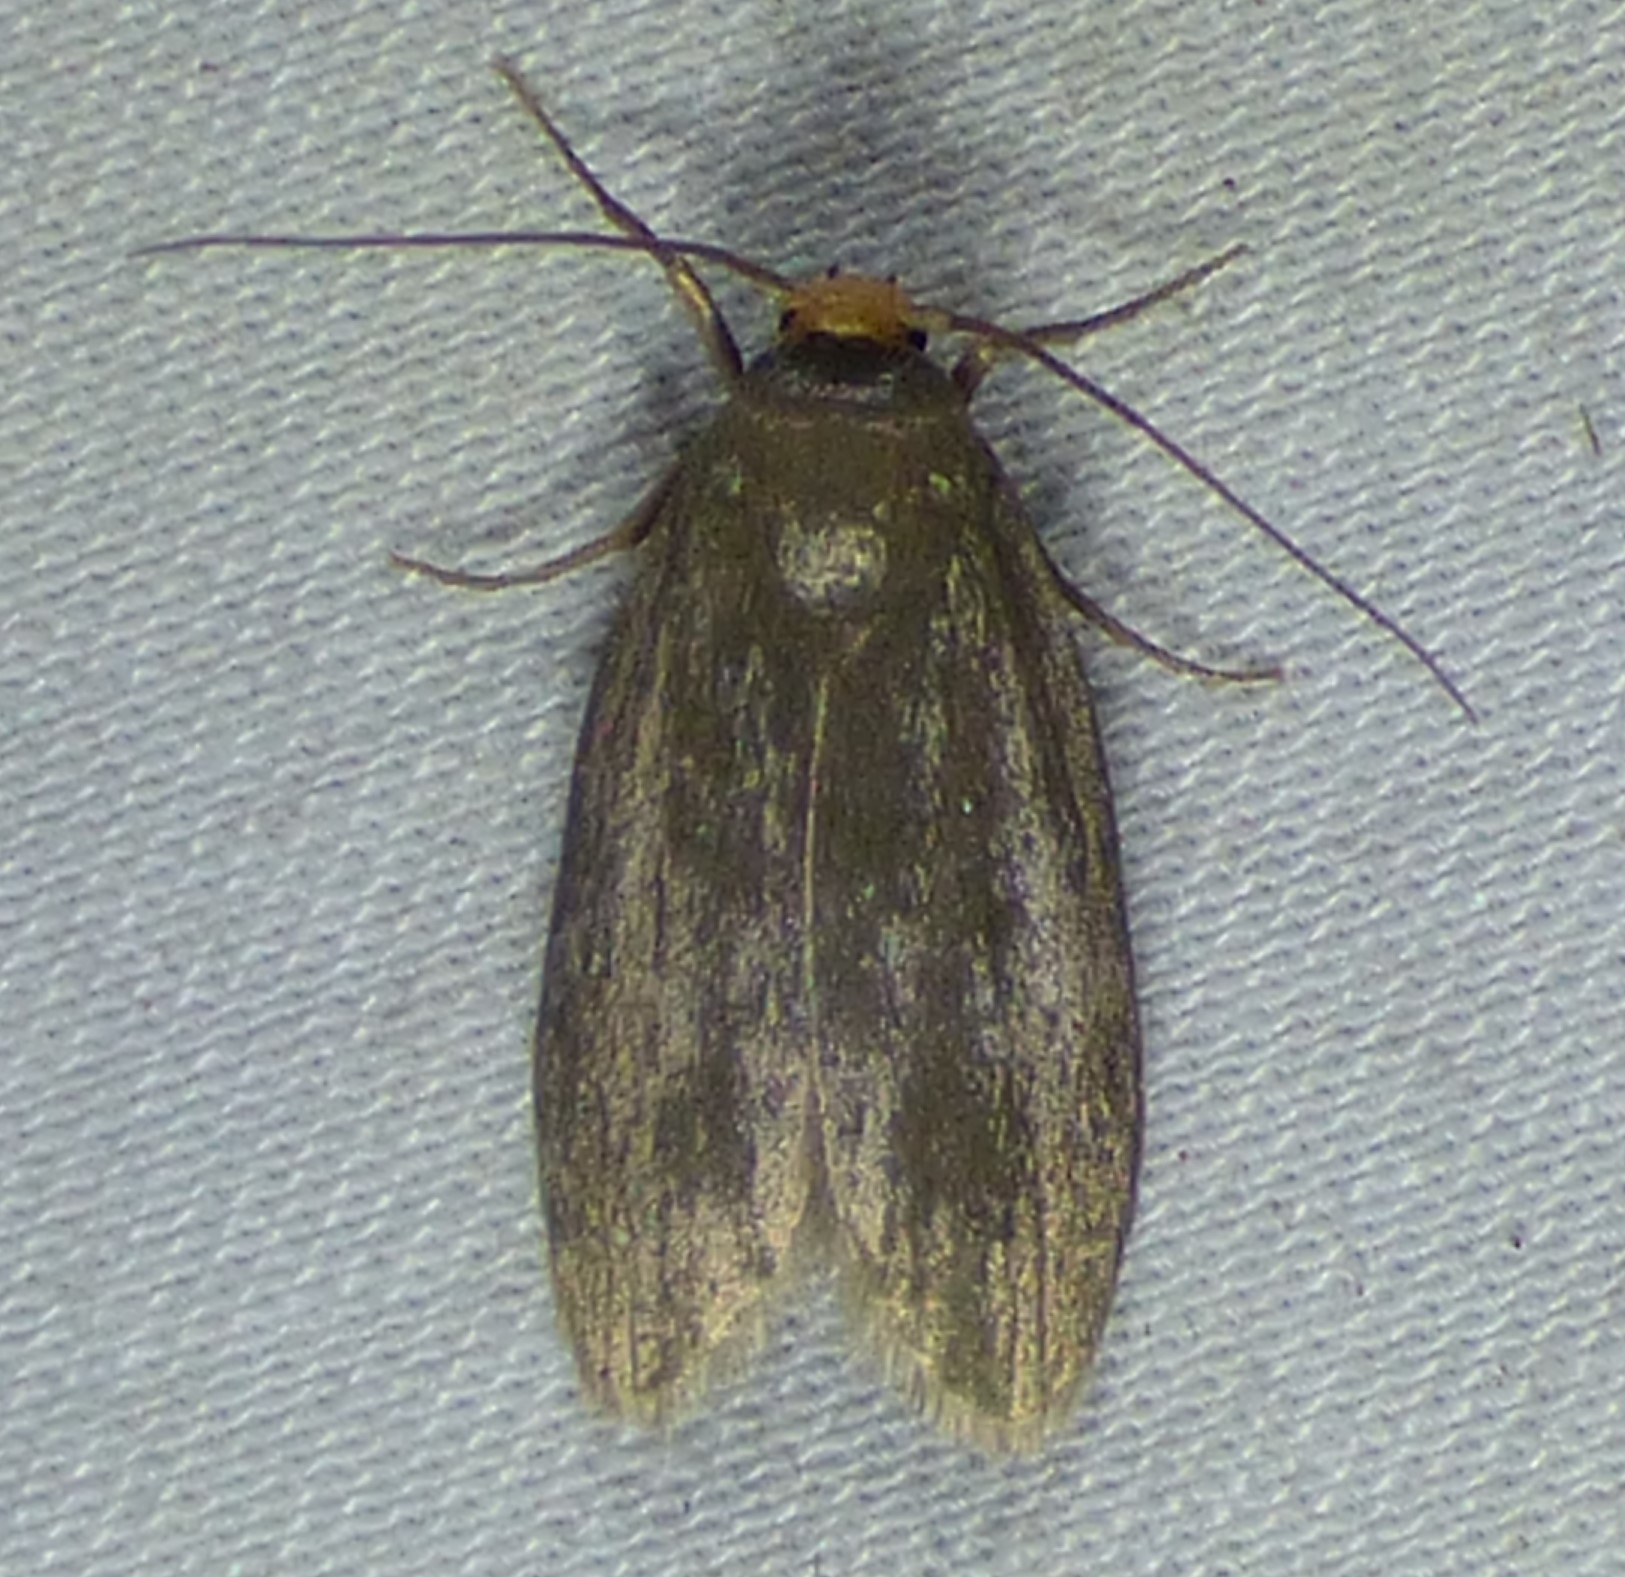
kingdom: Animalia
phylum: Arthropoda
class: Insecta
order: Lepidoptera
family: Pyralidae
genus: Achroia
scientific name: Achroia grisella
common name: Lesser wax moth
